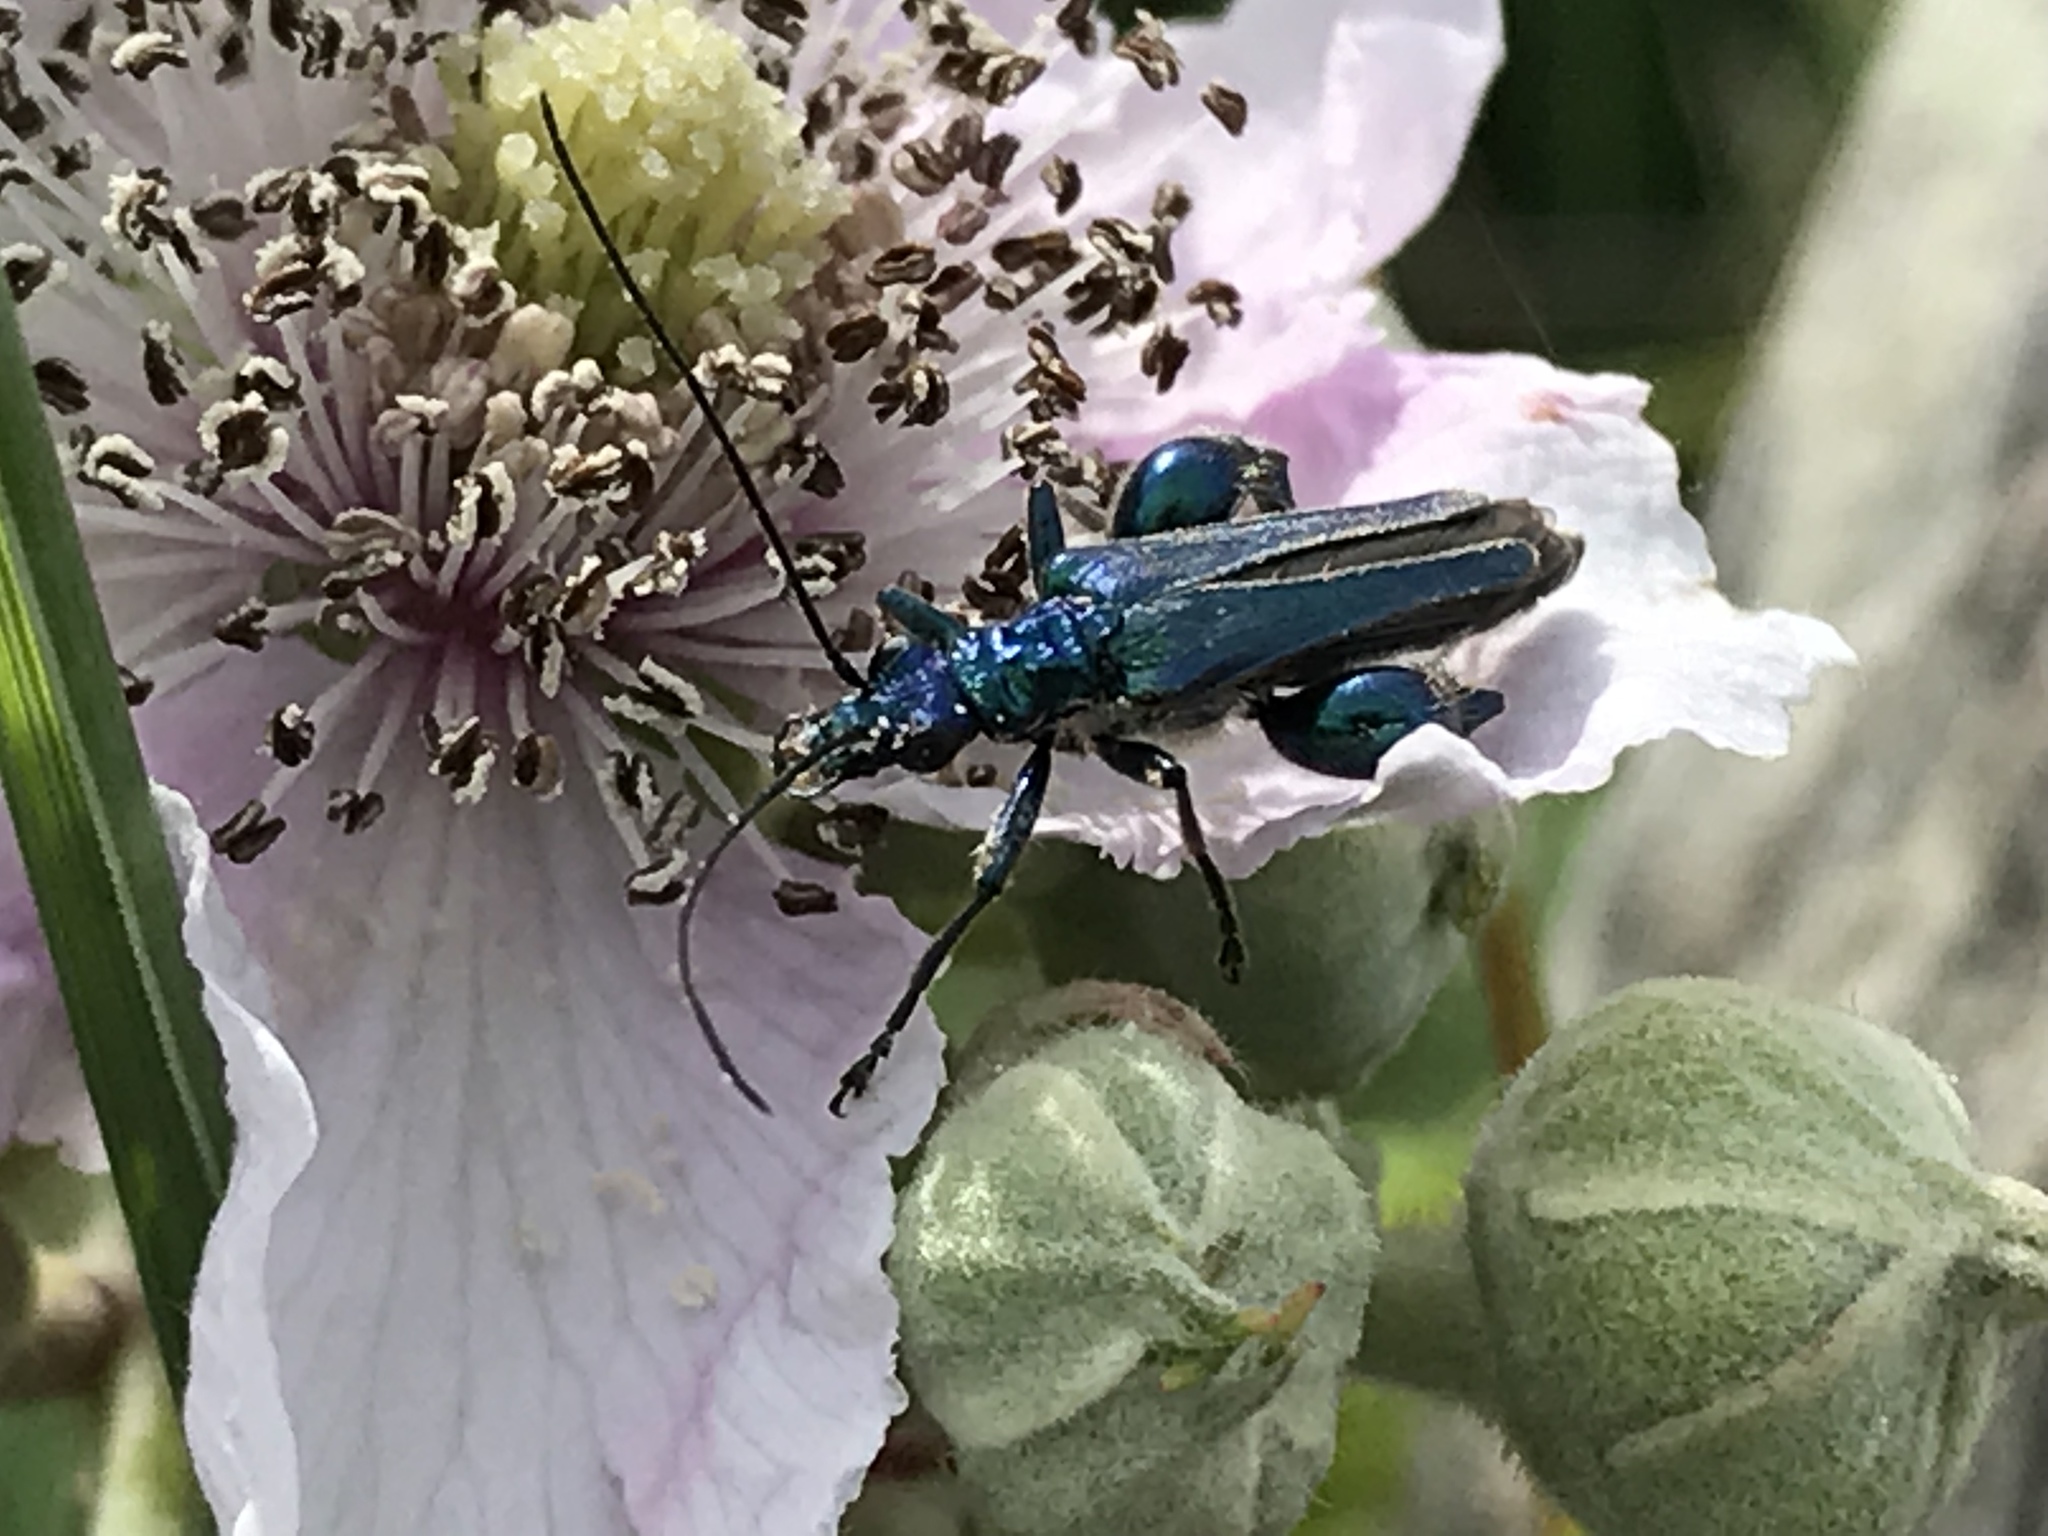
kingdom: Animalia
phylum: Arthropoda
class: Insecta
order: Coleoptera
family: Oedemeridae
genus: Oedemera
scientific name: Oedemera nobilis
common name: Swollen-thighed beetle
